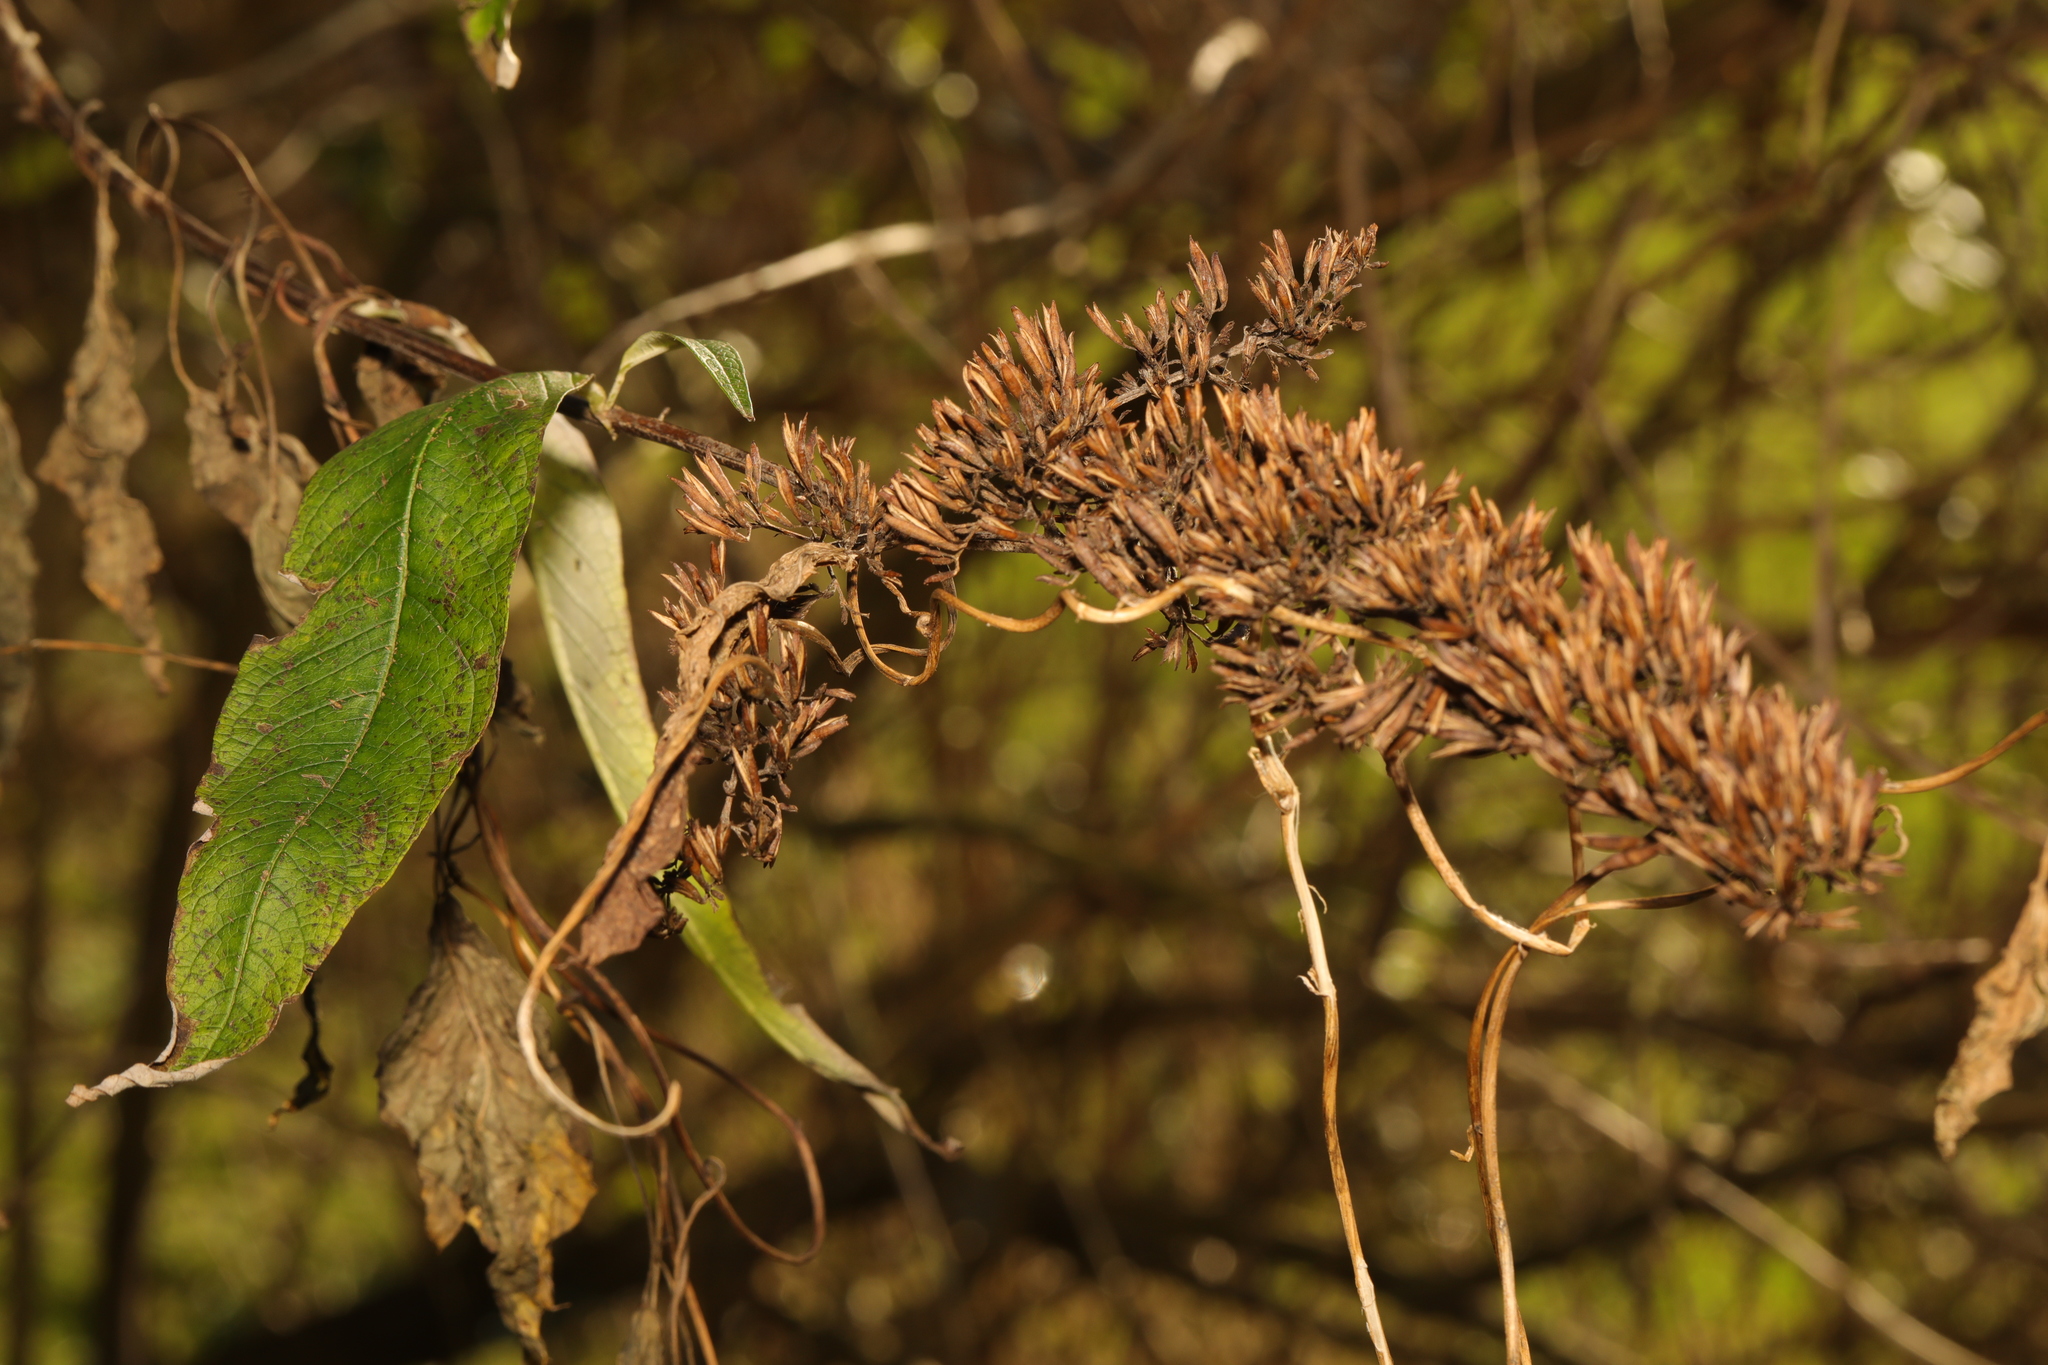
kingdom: Plantae
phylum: Tracheophyta
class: Magnoliopsida
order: Lamiales
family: Scrophulariaceae
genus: Buddleja
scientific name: Buddleja davidii
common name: Butterfly-bush
